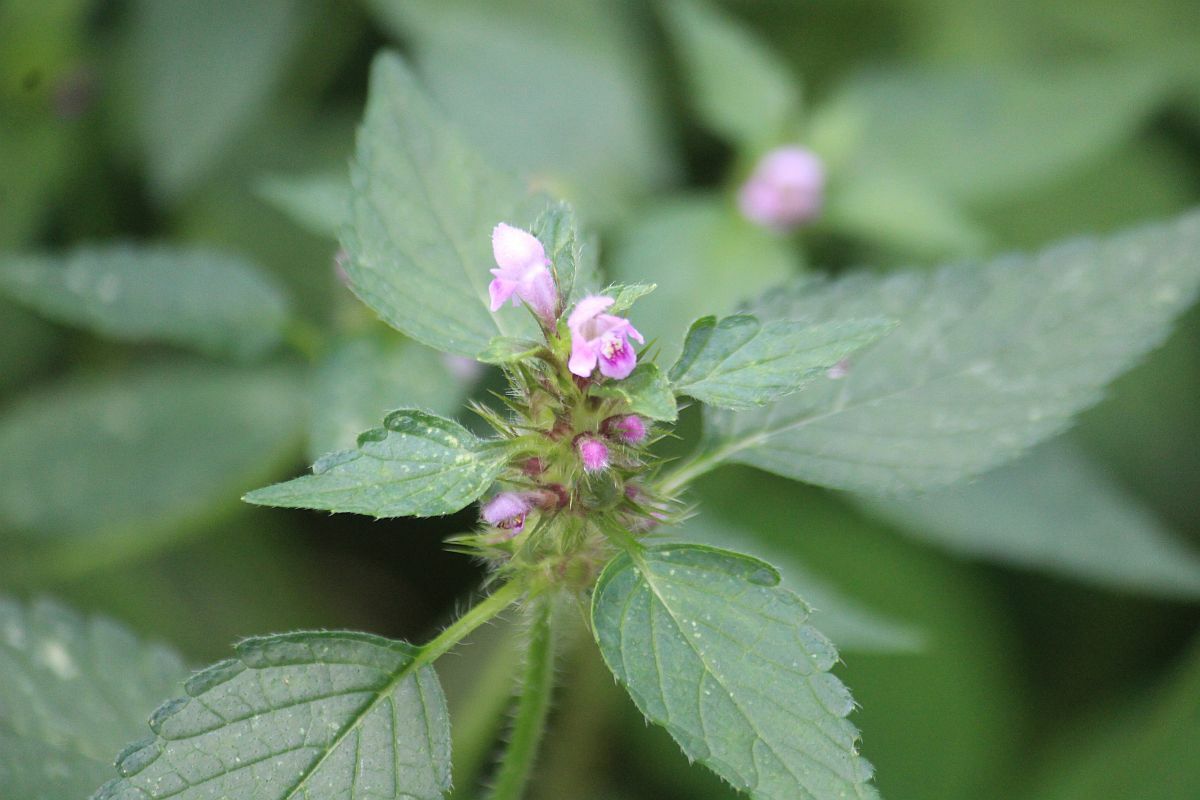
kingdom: Plantae
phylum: Tracheophyta
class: Magnoliopsida
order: Lamiales
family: Lamiaceae
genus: Galeopsis
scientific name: Galeopsis tetrahit
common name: Common hemp-nettle
